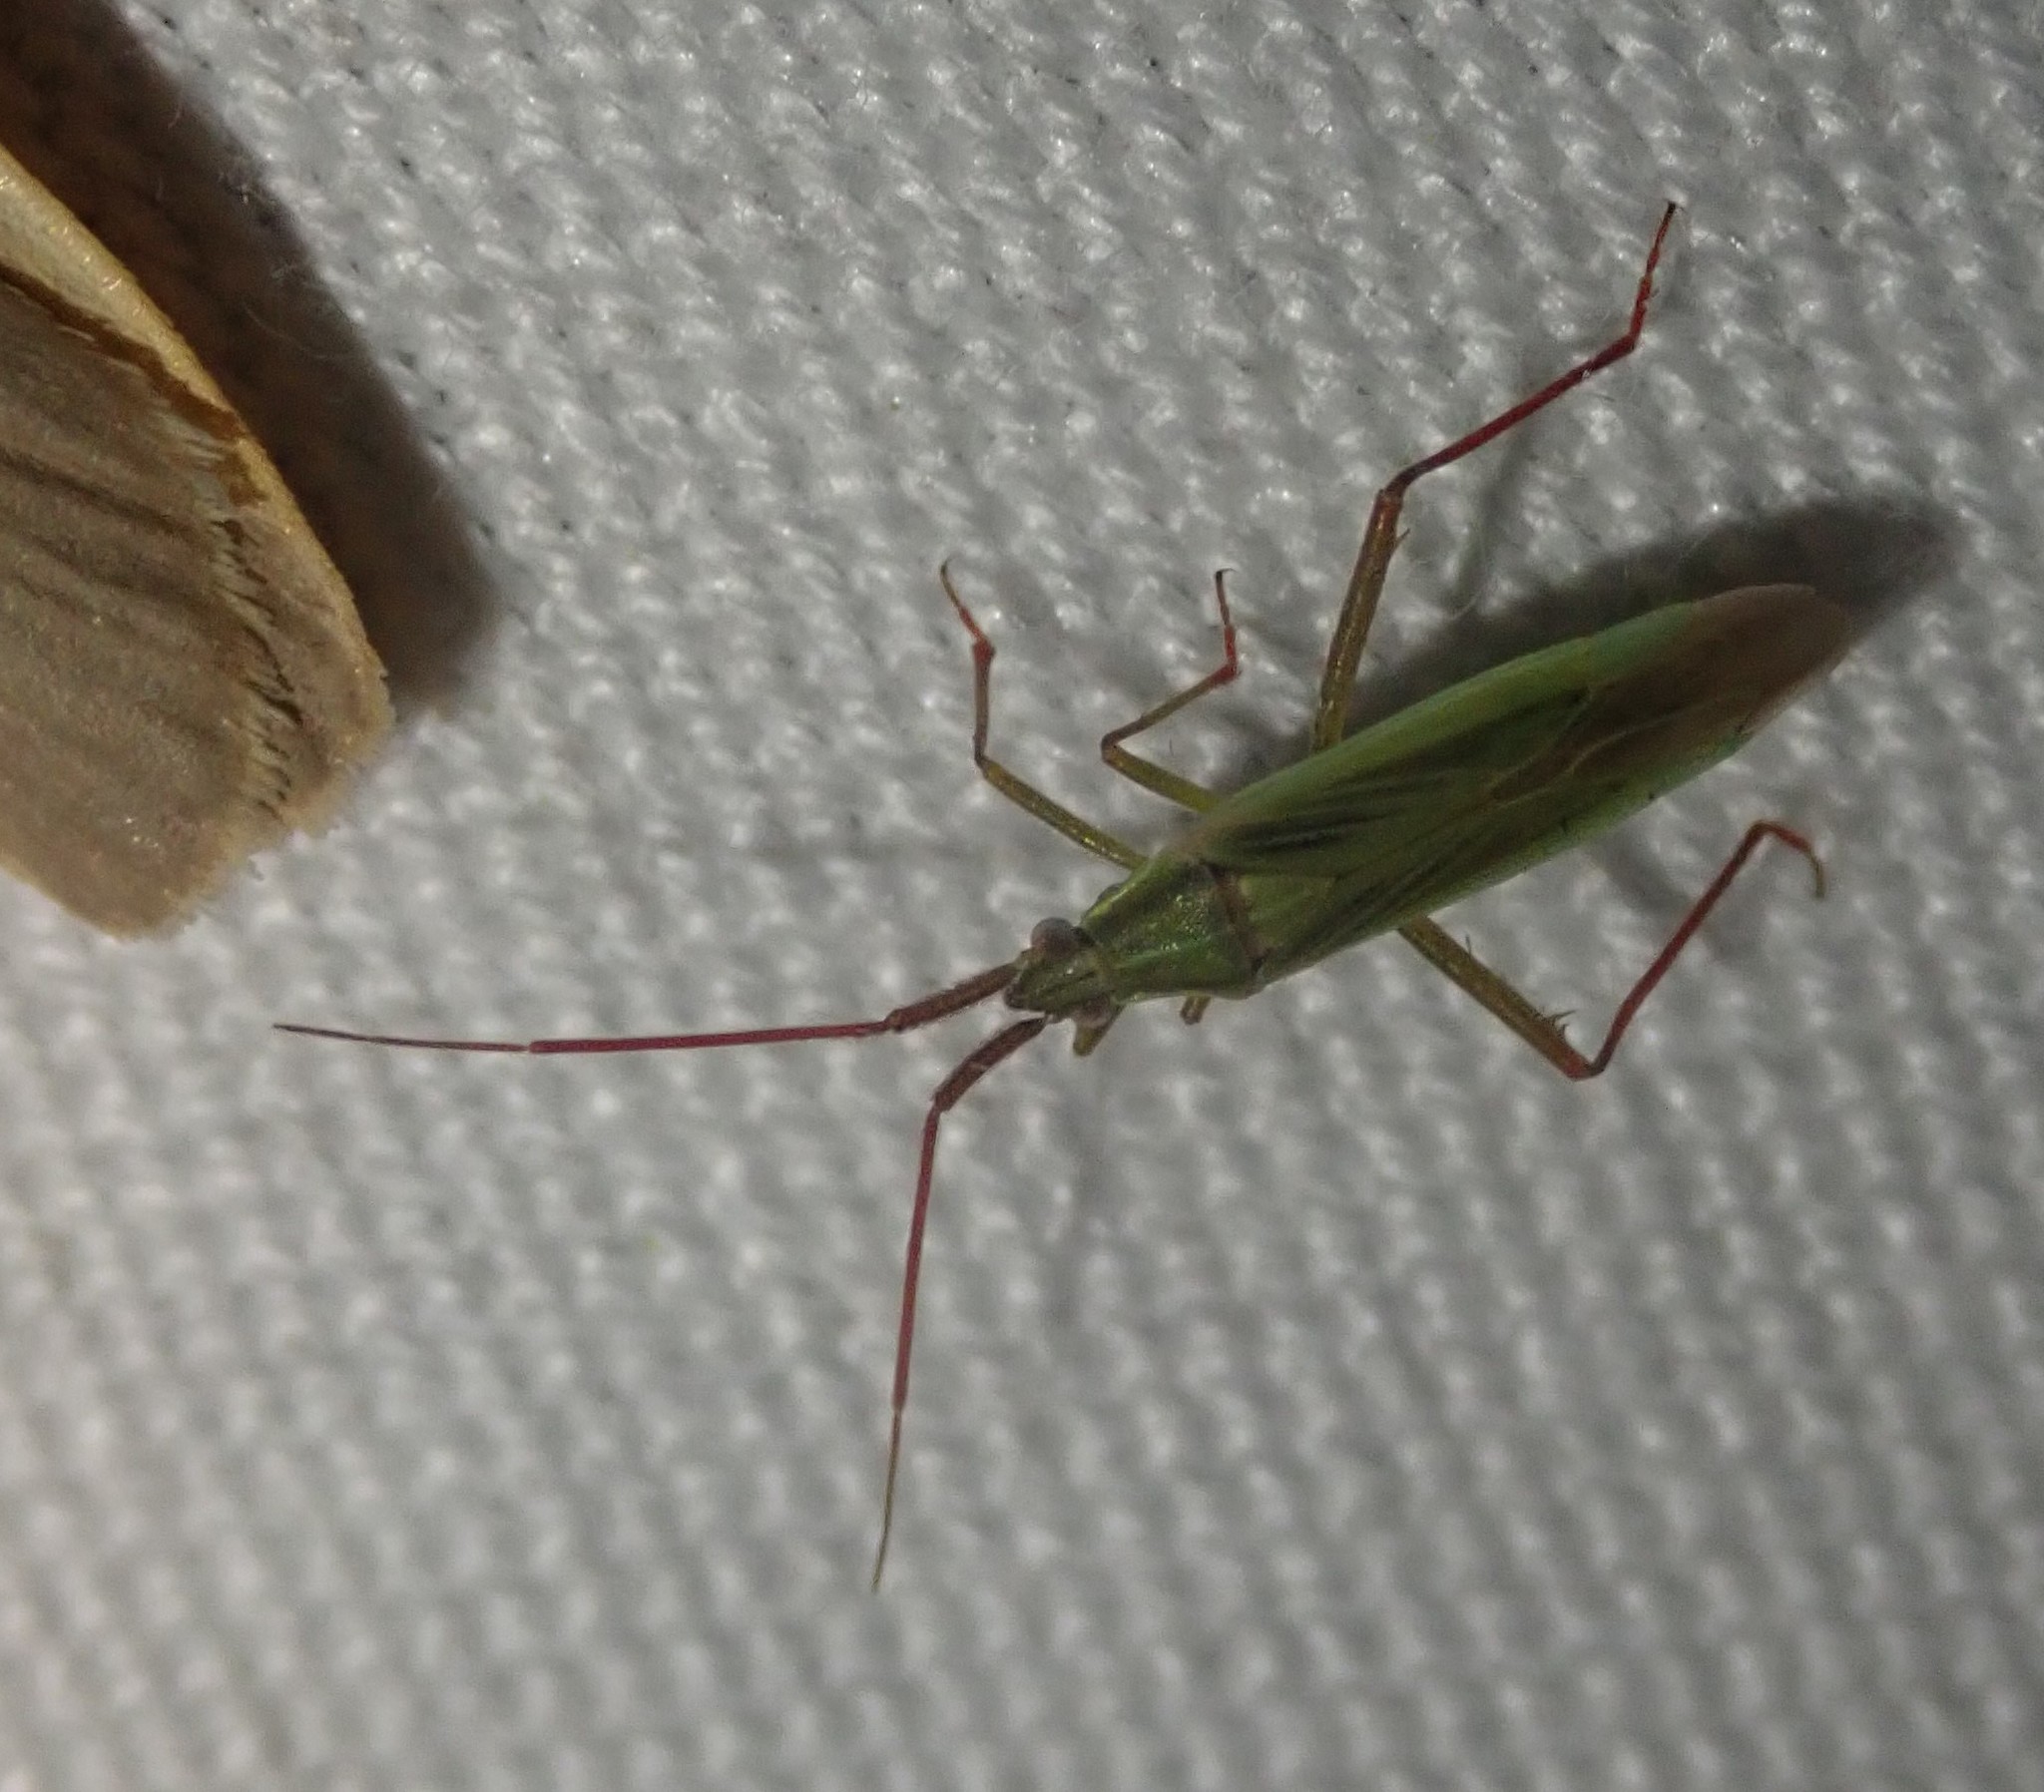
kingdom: Animalia
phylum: Arthropoda
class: Insecta
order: Hemiptera
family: Miridae
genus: Stenodema
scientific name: Stenodema calcarata
